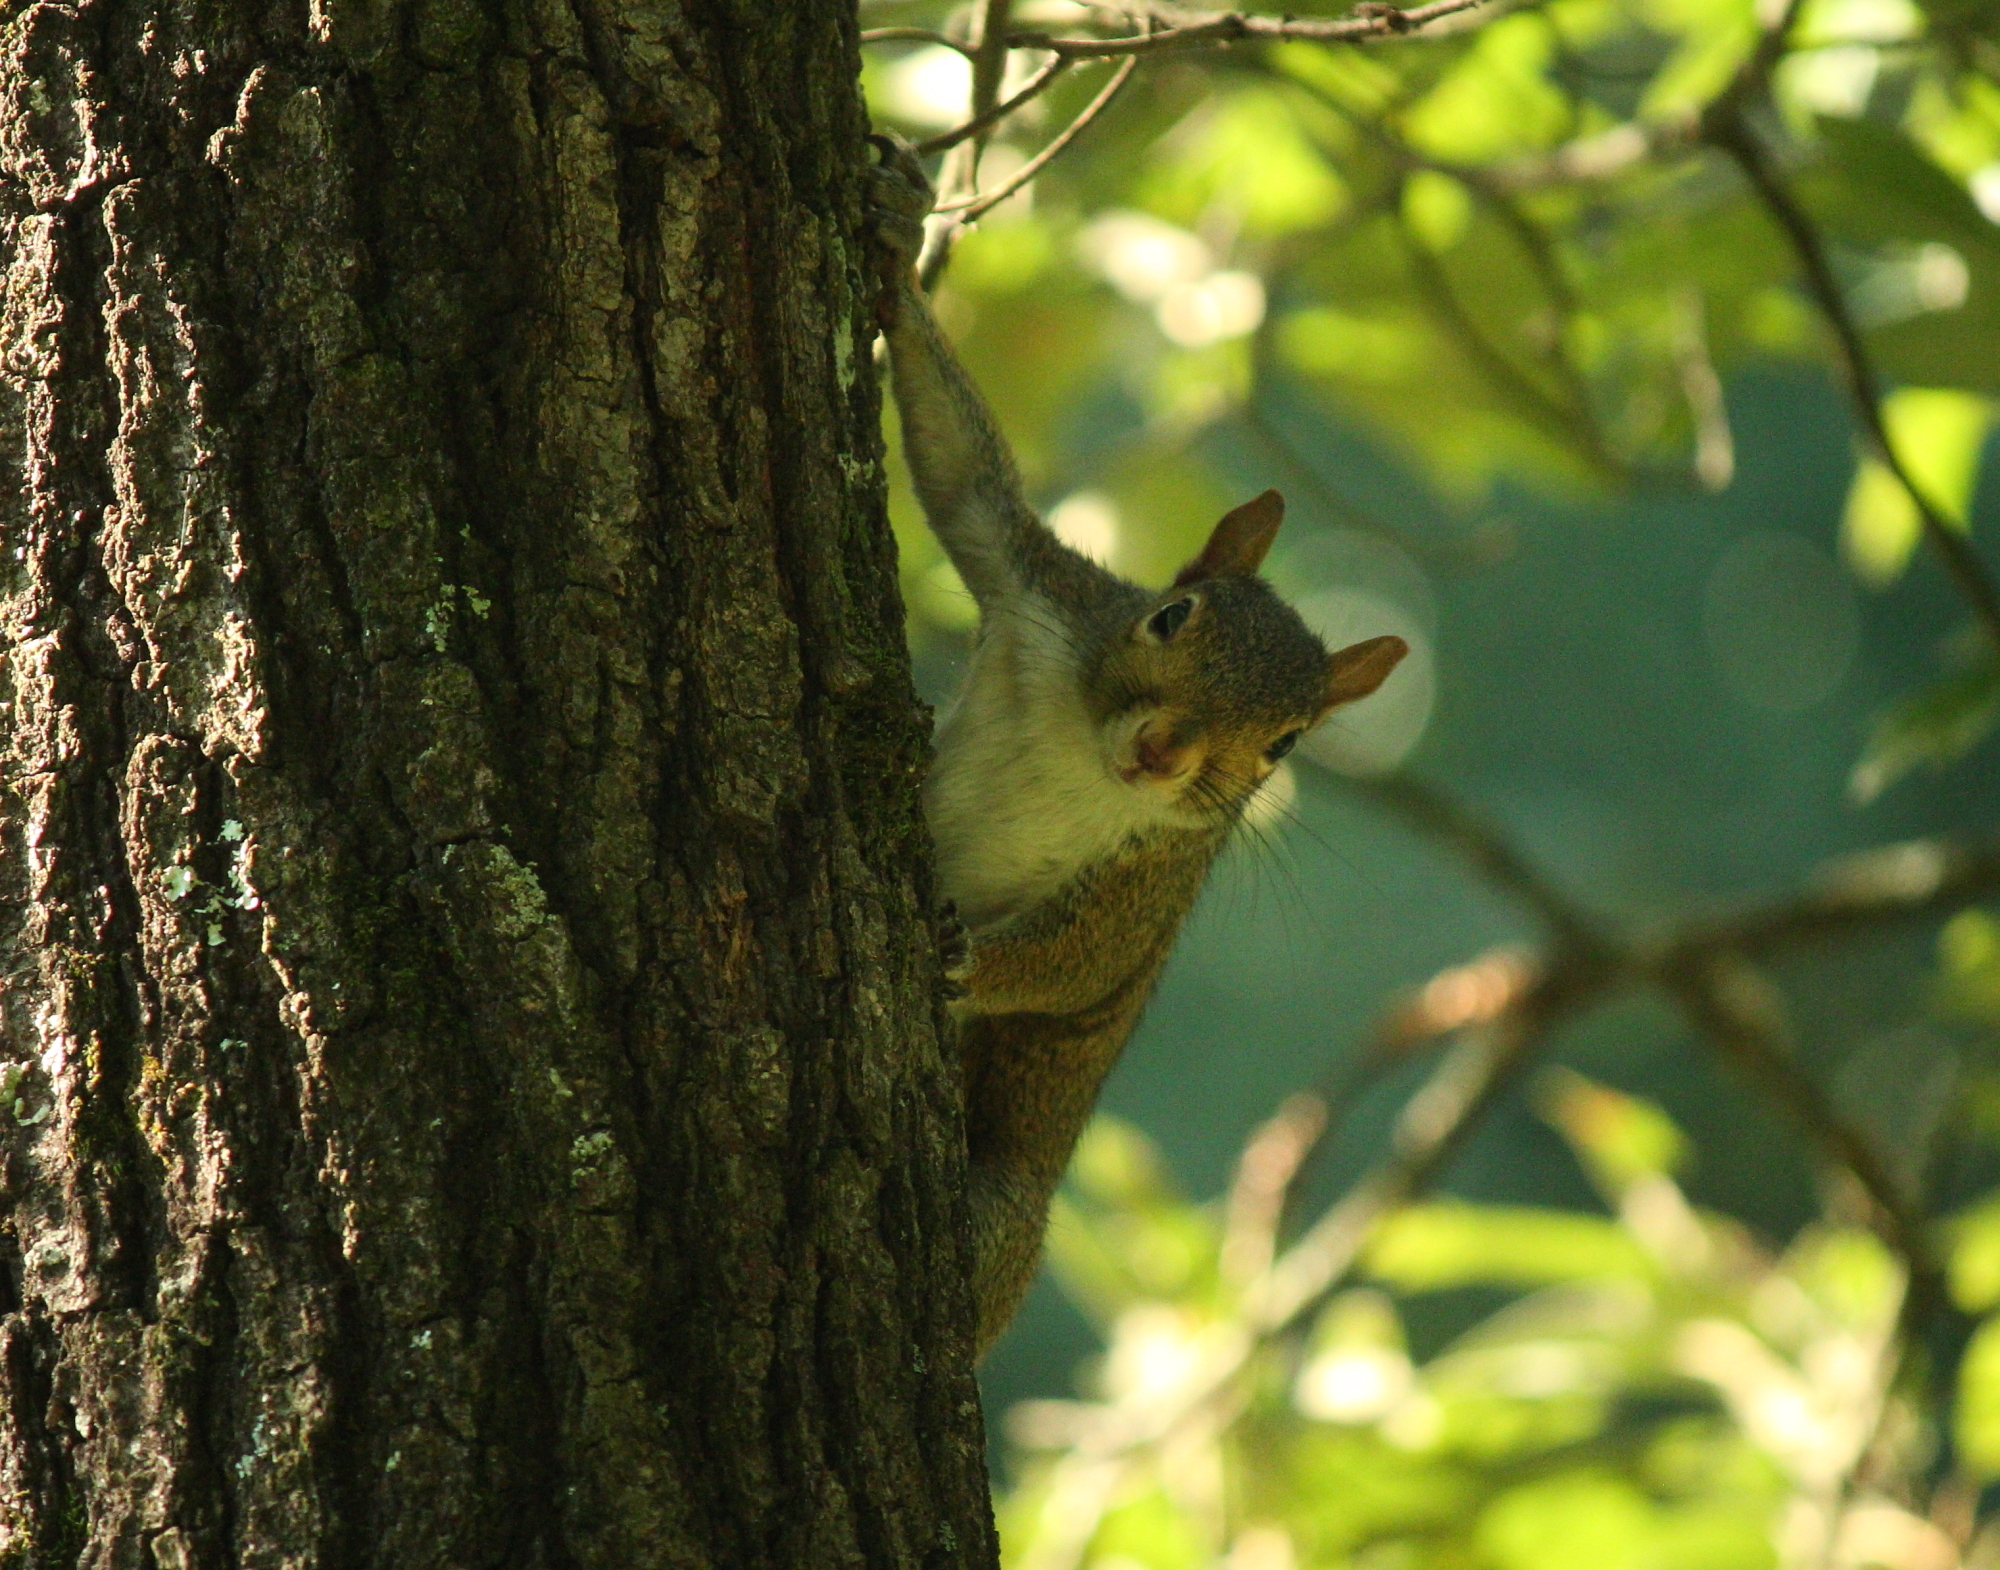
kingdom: Animalia
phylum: Chordata
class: Mammalia
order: Rodentia
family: Sciuridae
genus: Sciurus
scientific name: Sciurus carolinensis
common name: Eastern gray squirrel
